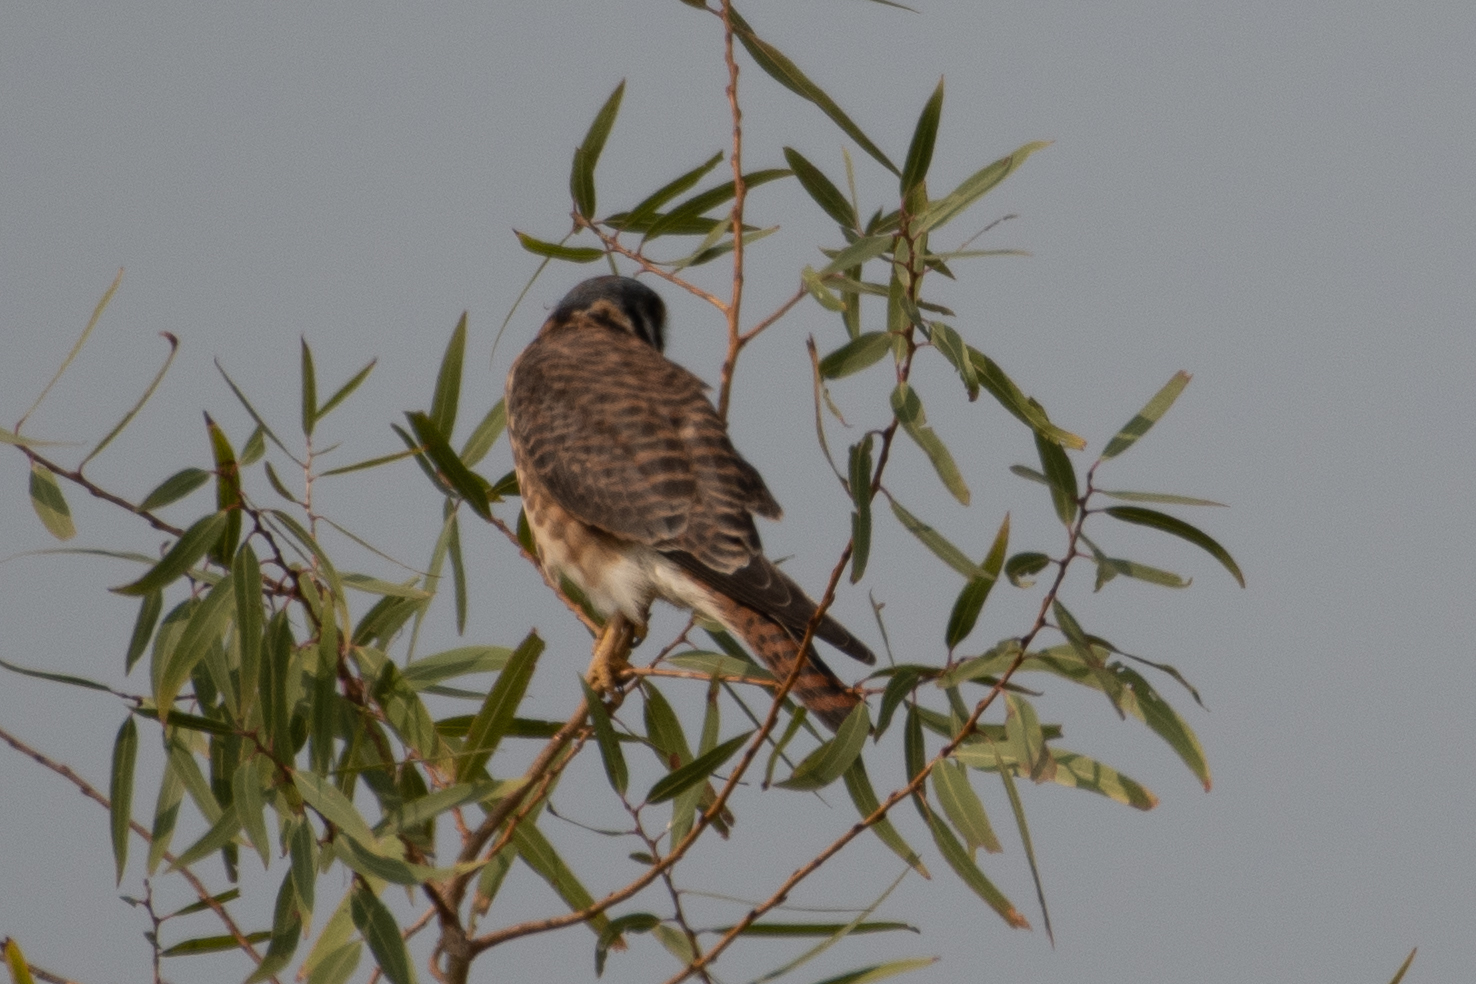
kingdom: Animalia
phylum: Chordata
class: Aves
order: Falconiformes
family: Falconidae
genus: Falco
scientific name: Falco sparverius
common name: American kestrel
